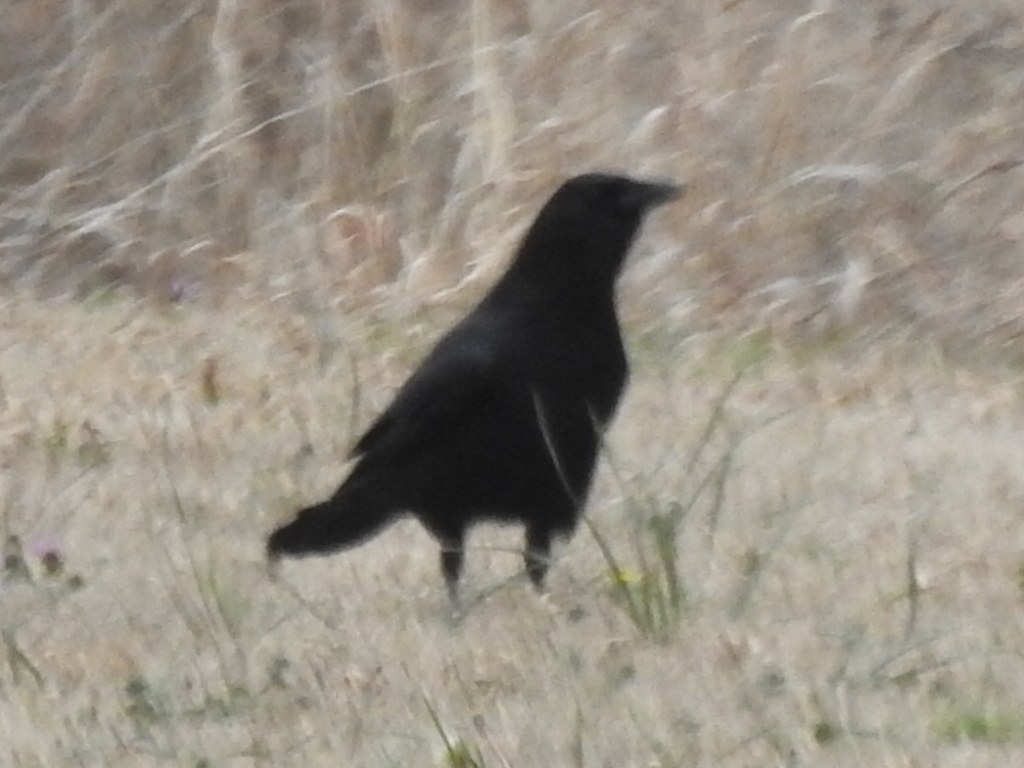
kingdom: Animalia
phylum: Chordata
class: Aves
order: Passeriformes
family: Corvidae
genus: Corvus
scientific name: Corvus brachyrhynchos
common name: American crow
